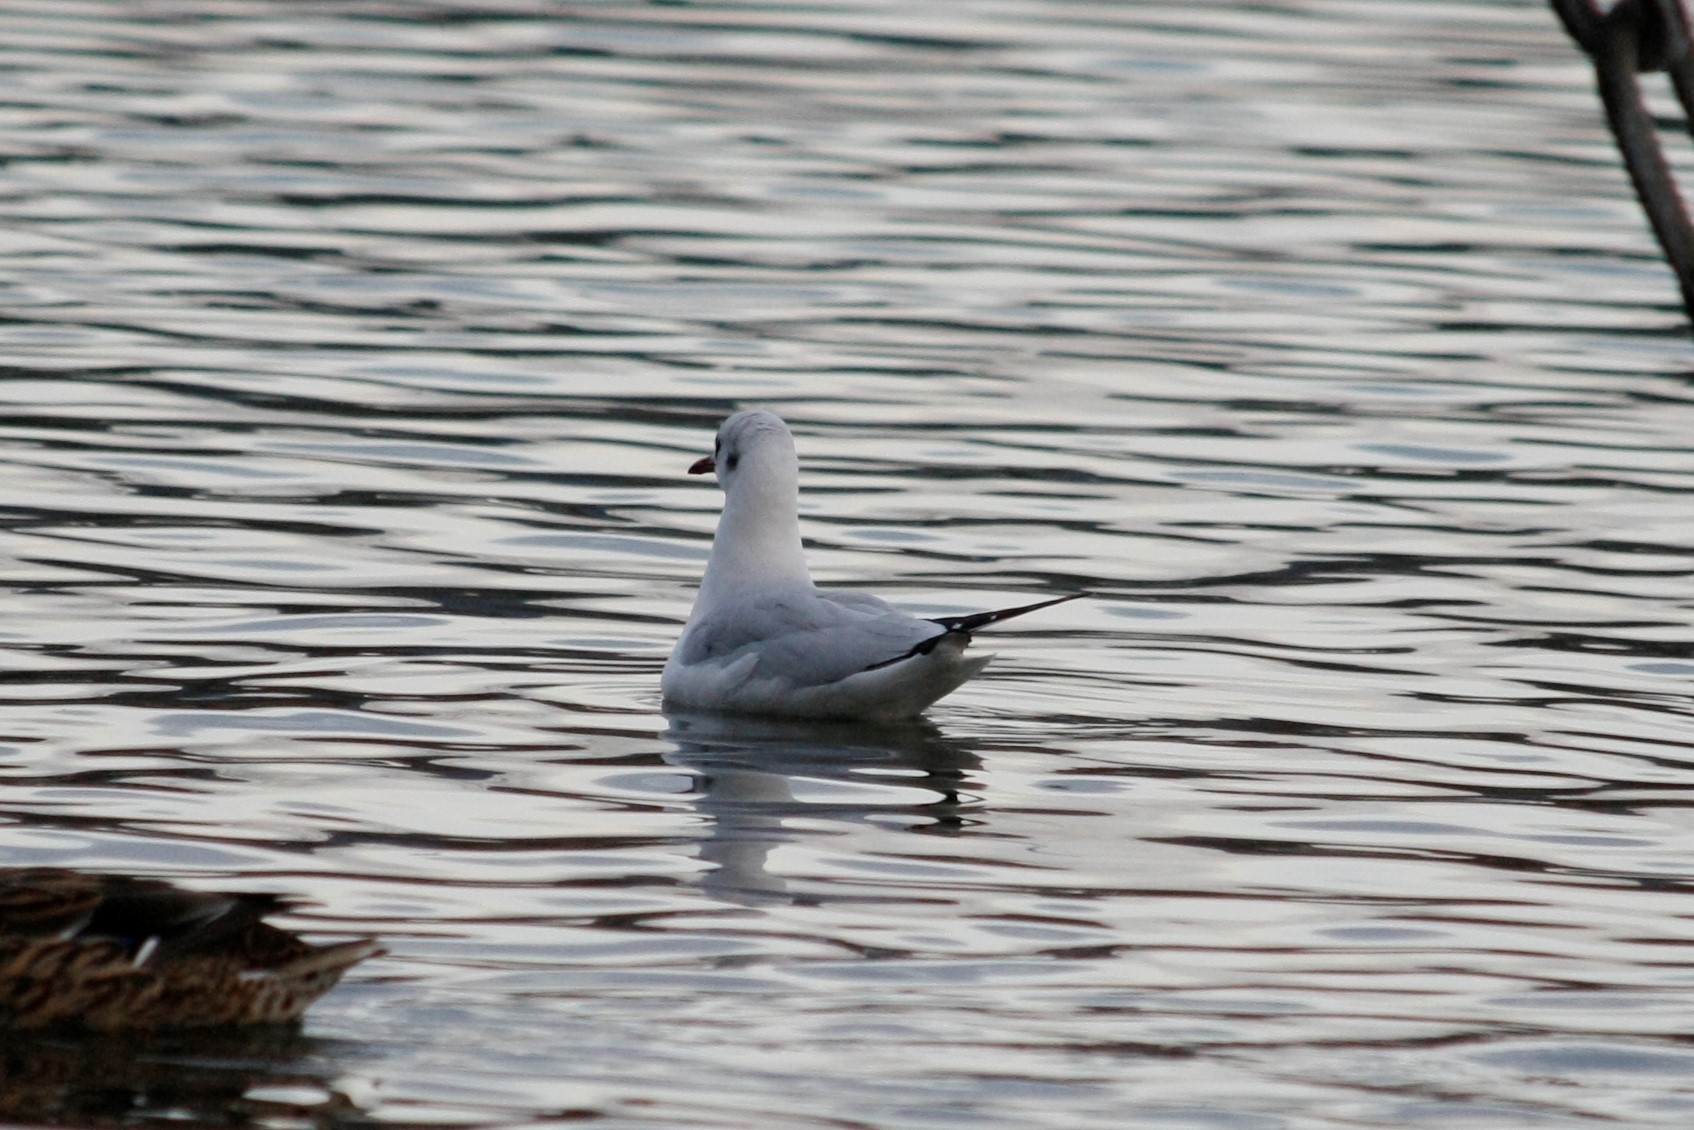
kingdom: Animalia
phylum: Chordata
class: Aves
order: Charadriiformes
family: Laridae
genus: Chroicocephalus
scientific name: Chroicocephalus ridibundus
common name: Black-headed gull
